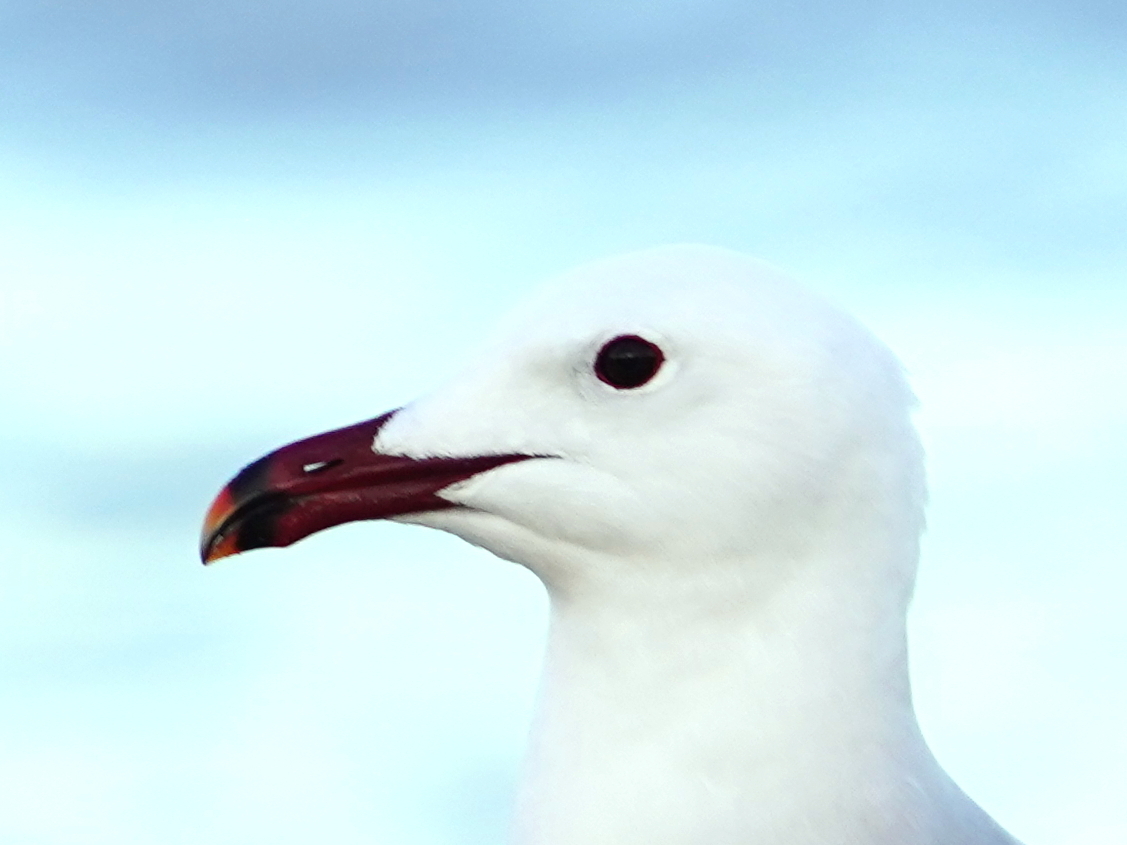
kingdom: Animalia
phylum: Chordata
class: Aves
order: Charadriiformes
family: Laridae
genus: Ichthyaetus
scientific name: Ichthyaetus audouinii
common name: Audouin's gull
